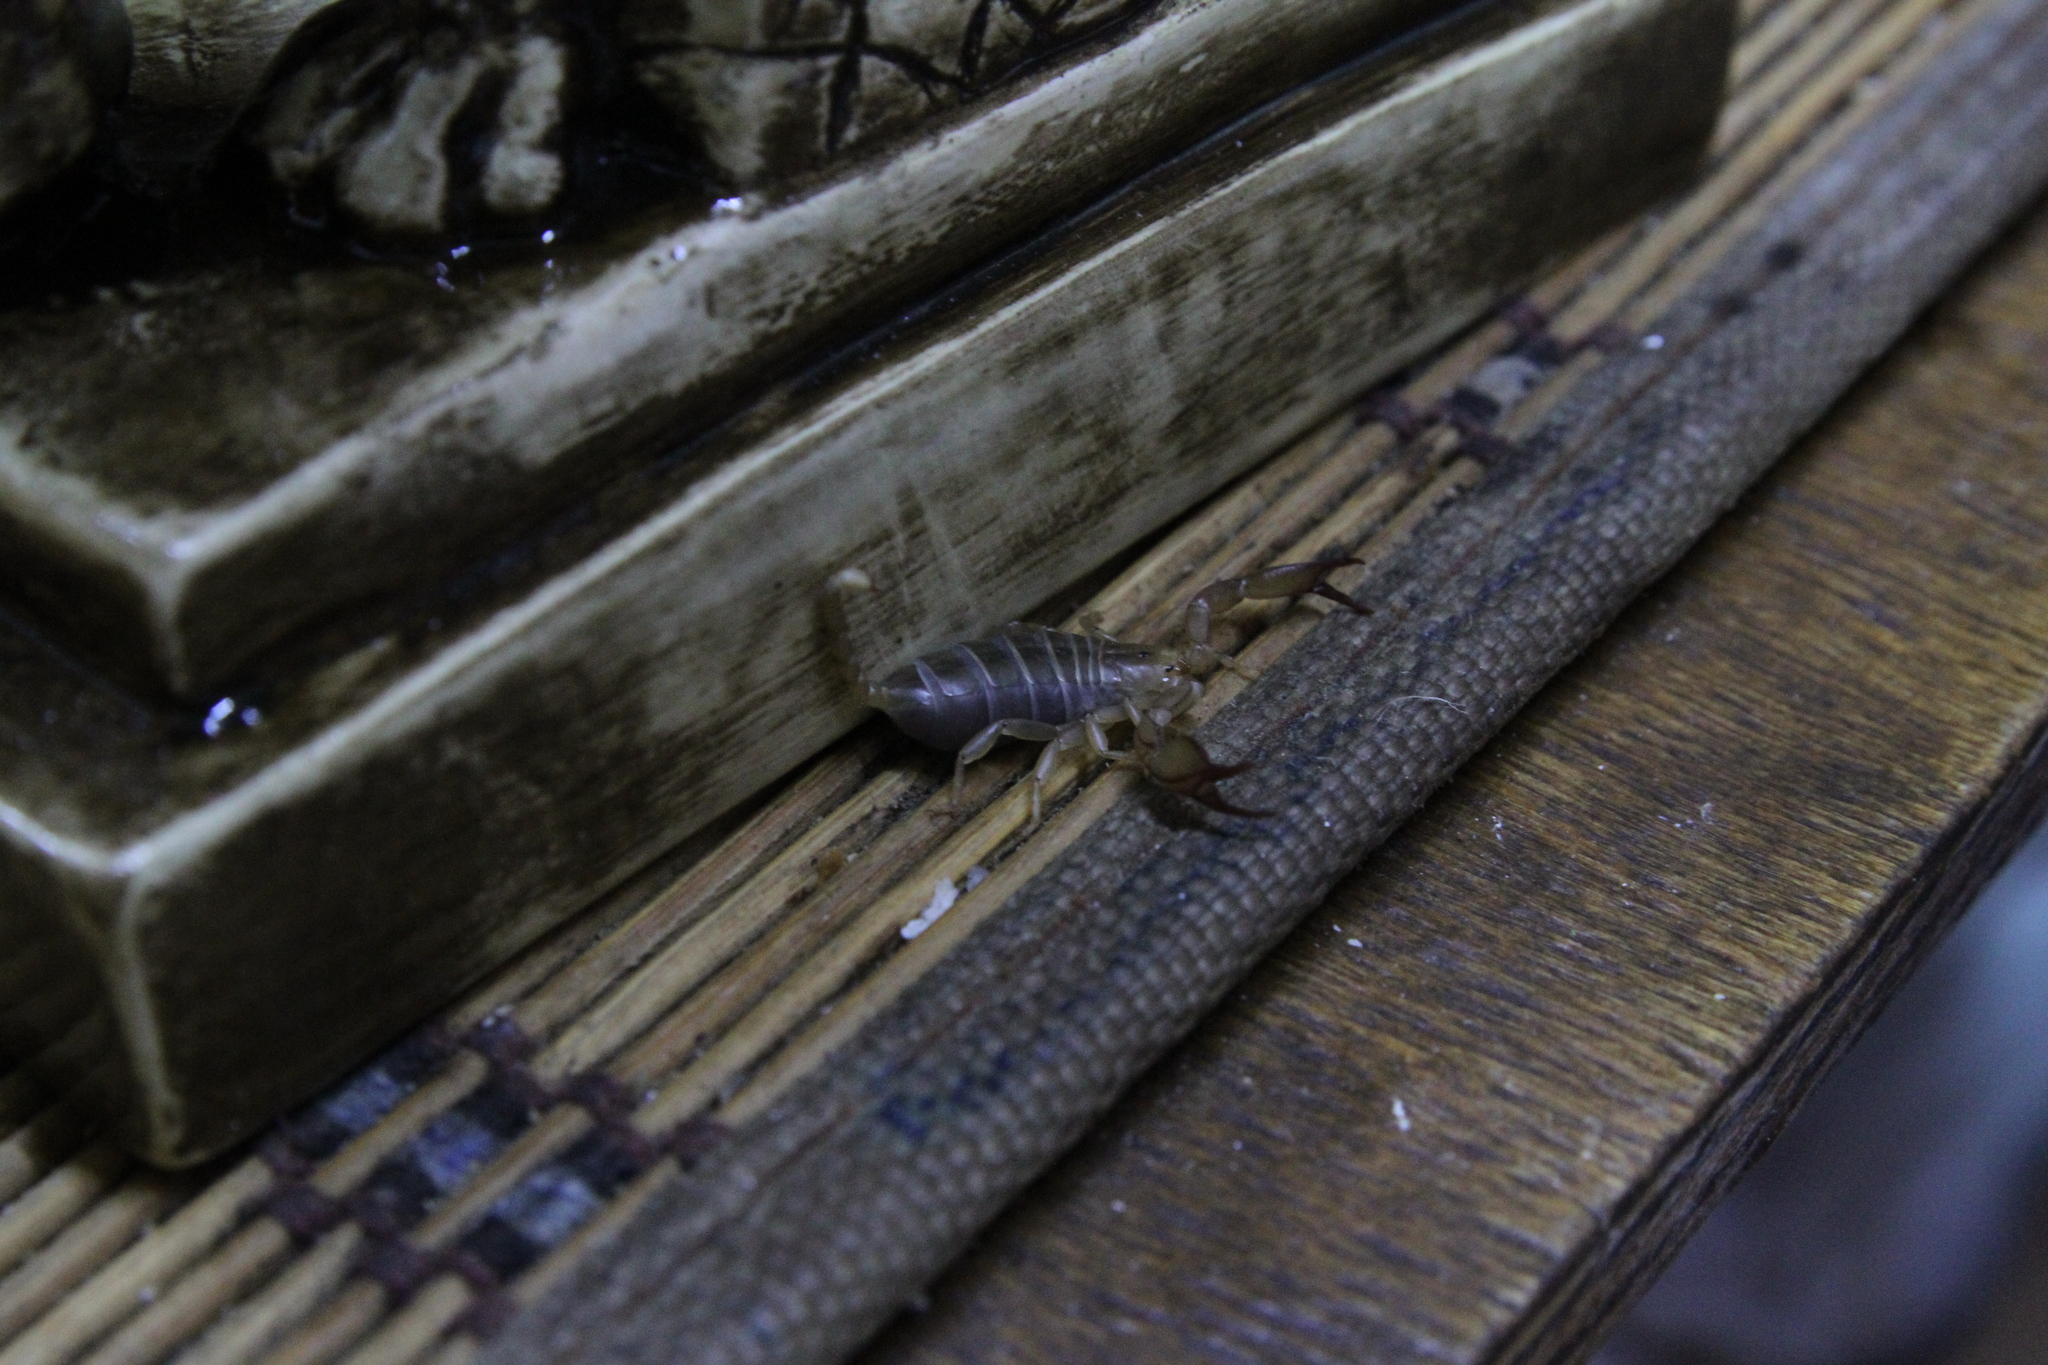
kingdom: Animalia
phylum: Arthropoda
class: Arachnida
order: Scorpiones
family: Euscorpiidae
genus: Euscorpius
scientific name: Euscorpius tauricus
